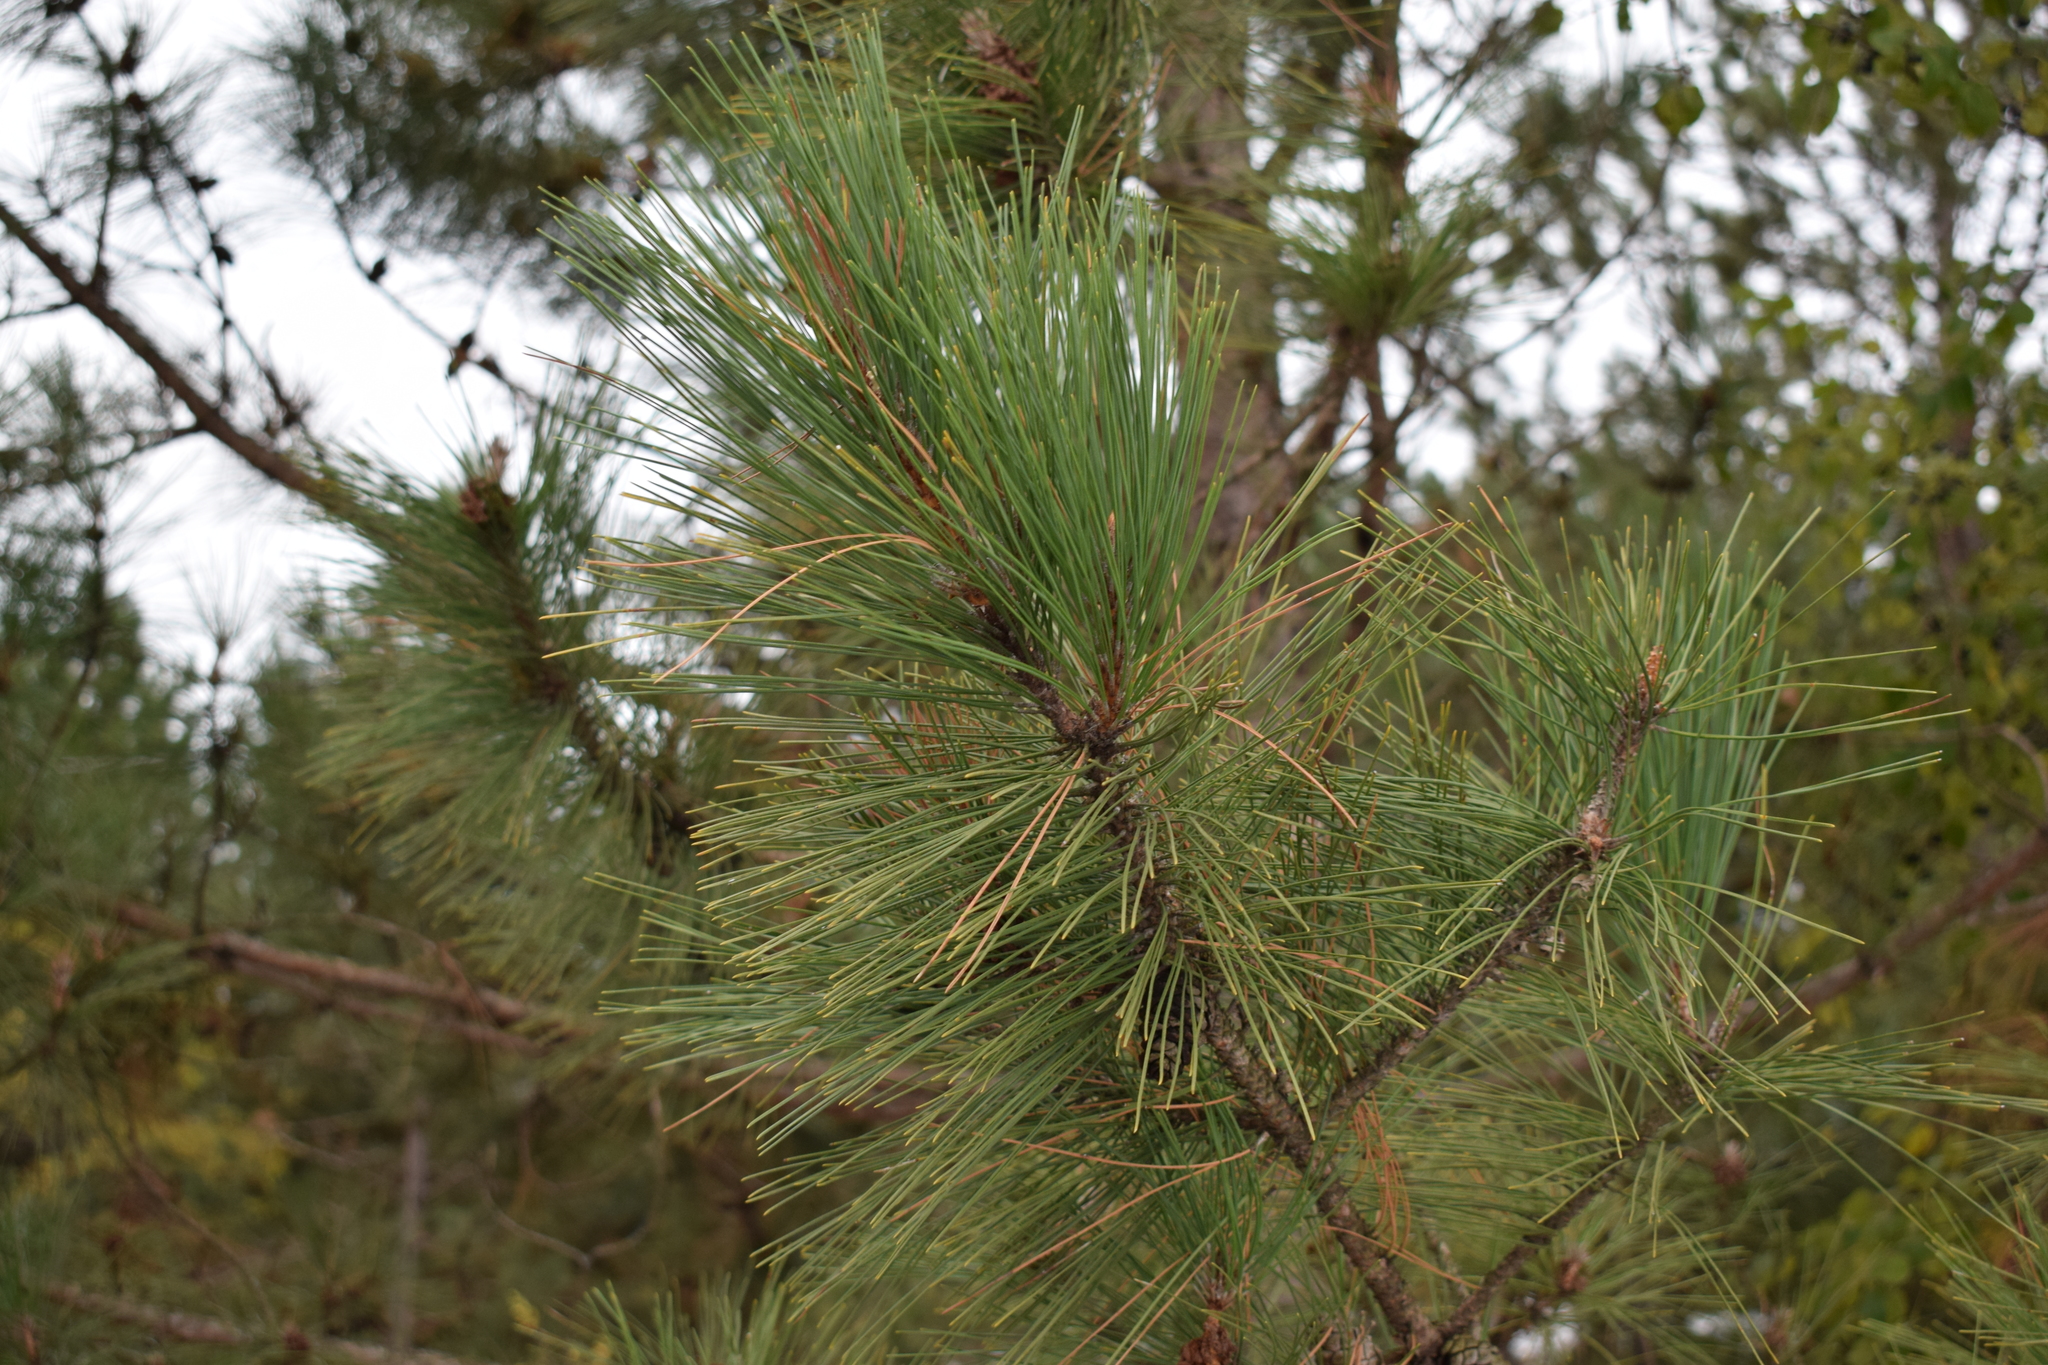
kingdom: Plantae
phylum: Tracheophyta
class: Pinopsida
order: Pinales
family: Pinaceae
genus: Pinus
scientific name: Pinus resinosa
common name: Norway pine
